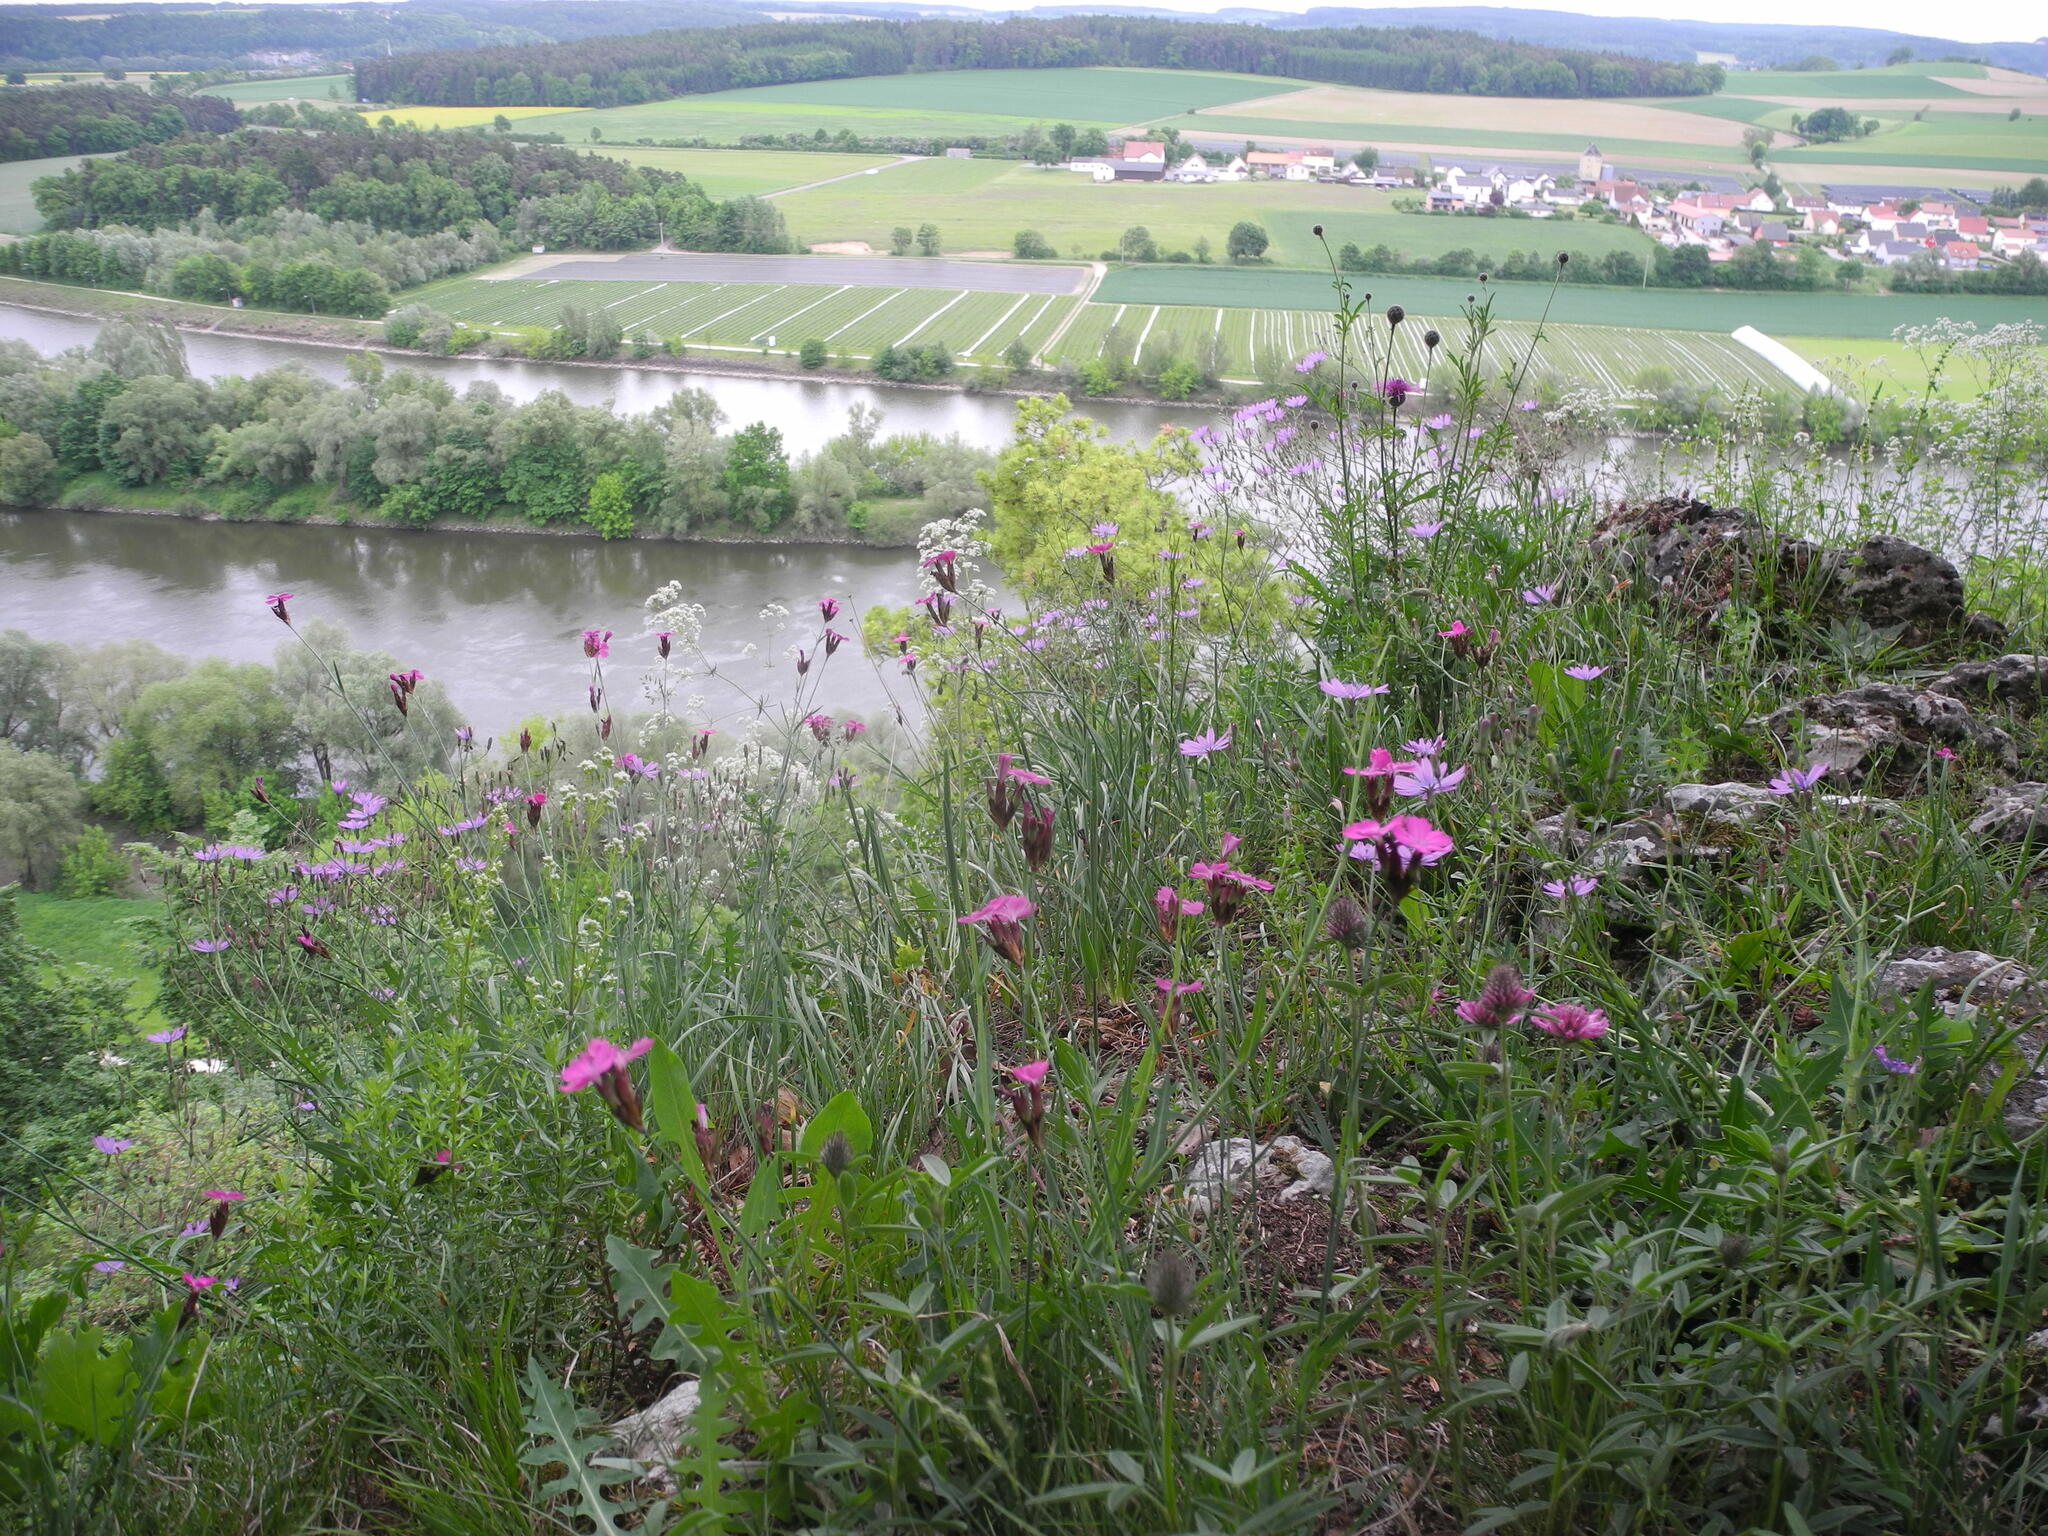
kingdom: Plantae
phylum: Tracheophyta
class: Magnoliopsida
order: Caryophyllales
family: Caryophyllaceae
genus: Dianthus
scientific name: Dianthus carthusianorum
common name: Carthusian pink
